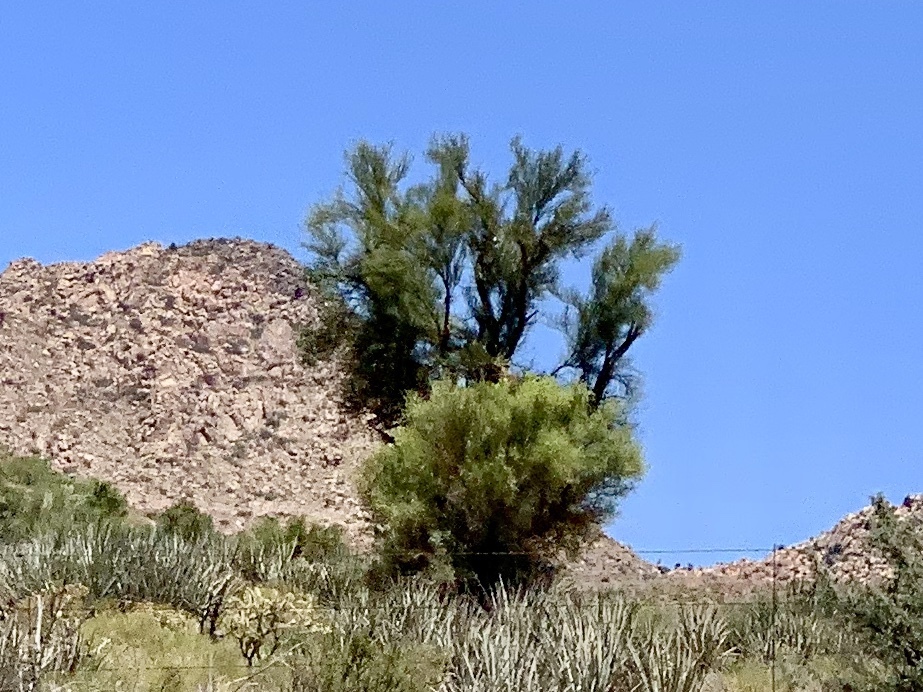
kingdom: Plantae
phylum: Tracheophyta
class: Magnoliopsida
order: Celastrales
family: Celastraceae
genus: Canotia
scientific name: Canotia holacantha
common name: Crucifixion thorns
